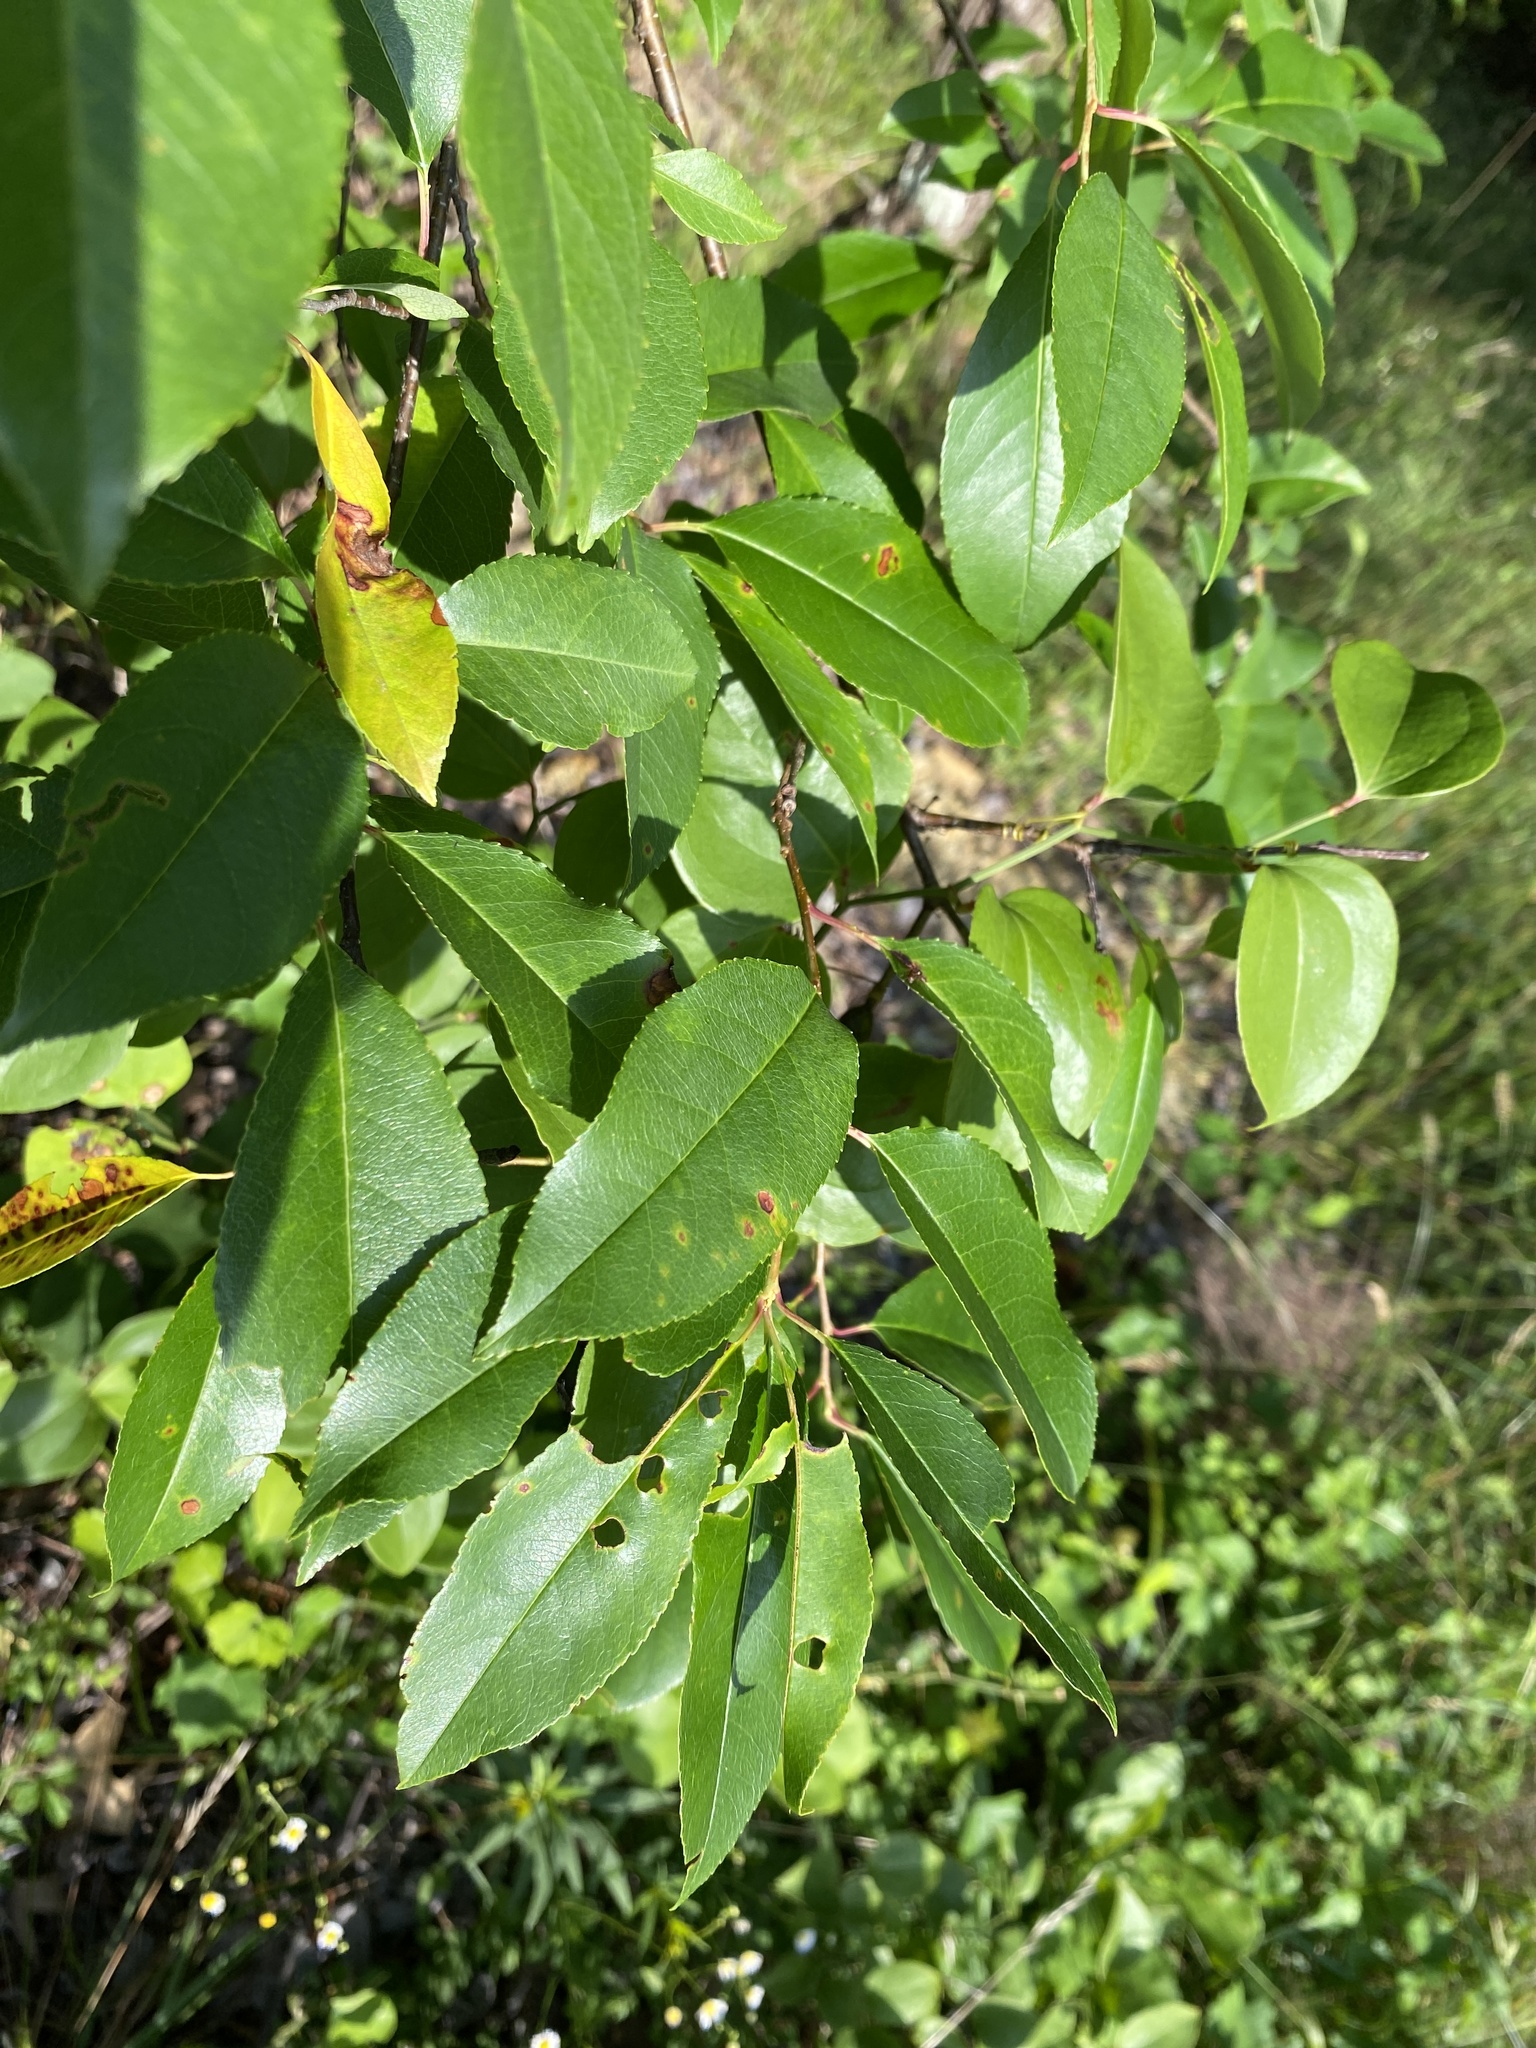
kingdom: Plantae
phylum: Tracheophyta
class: Magnoliopsida
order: Rosales
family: Rosaceae
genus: Prunus
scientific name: Prunus serotina
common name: Black cherry
